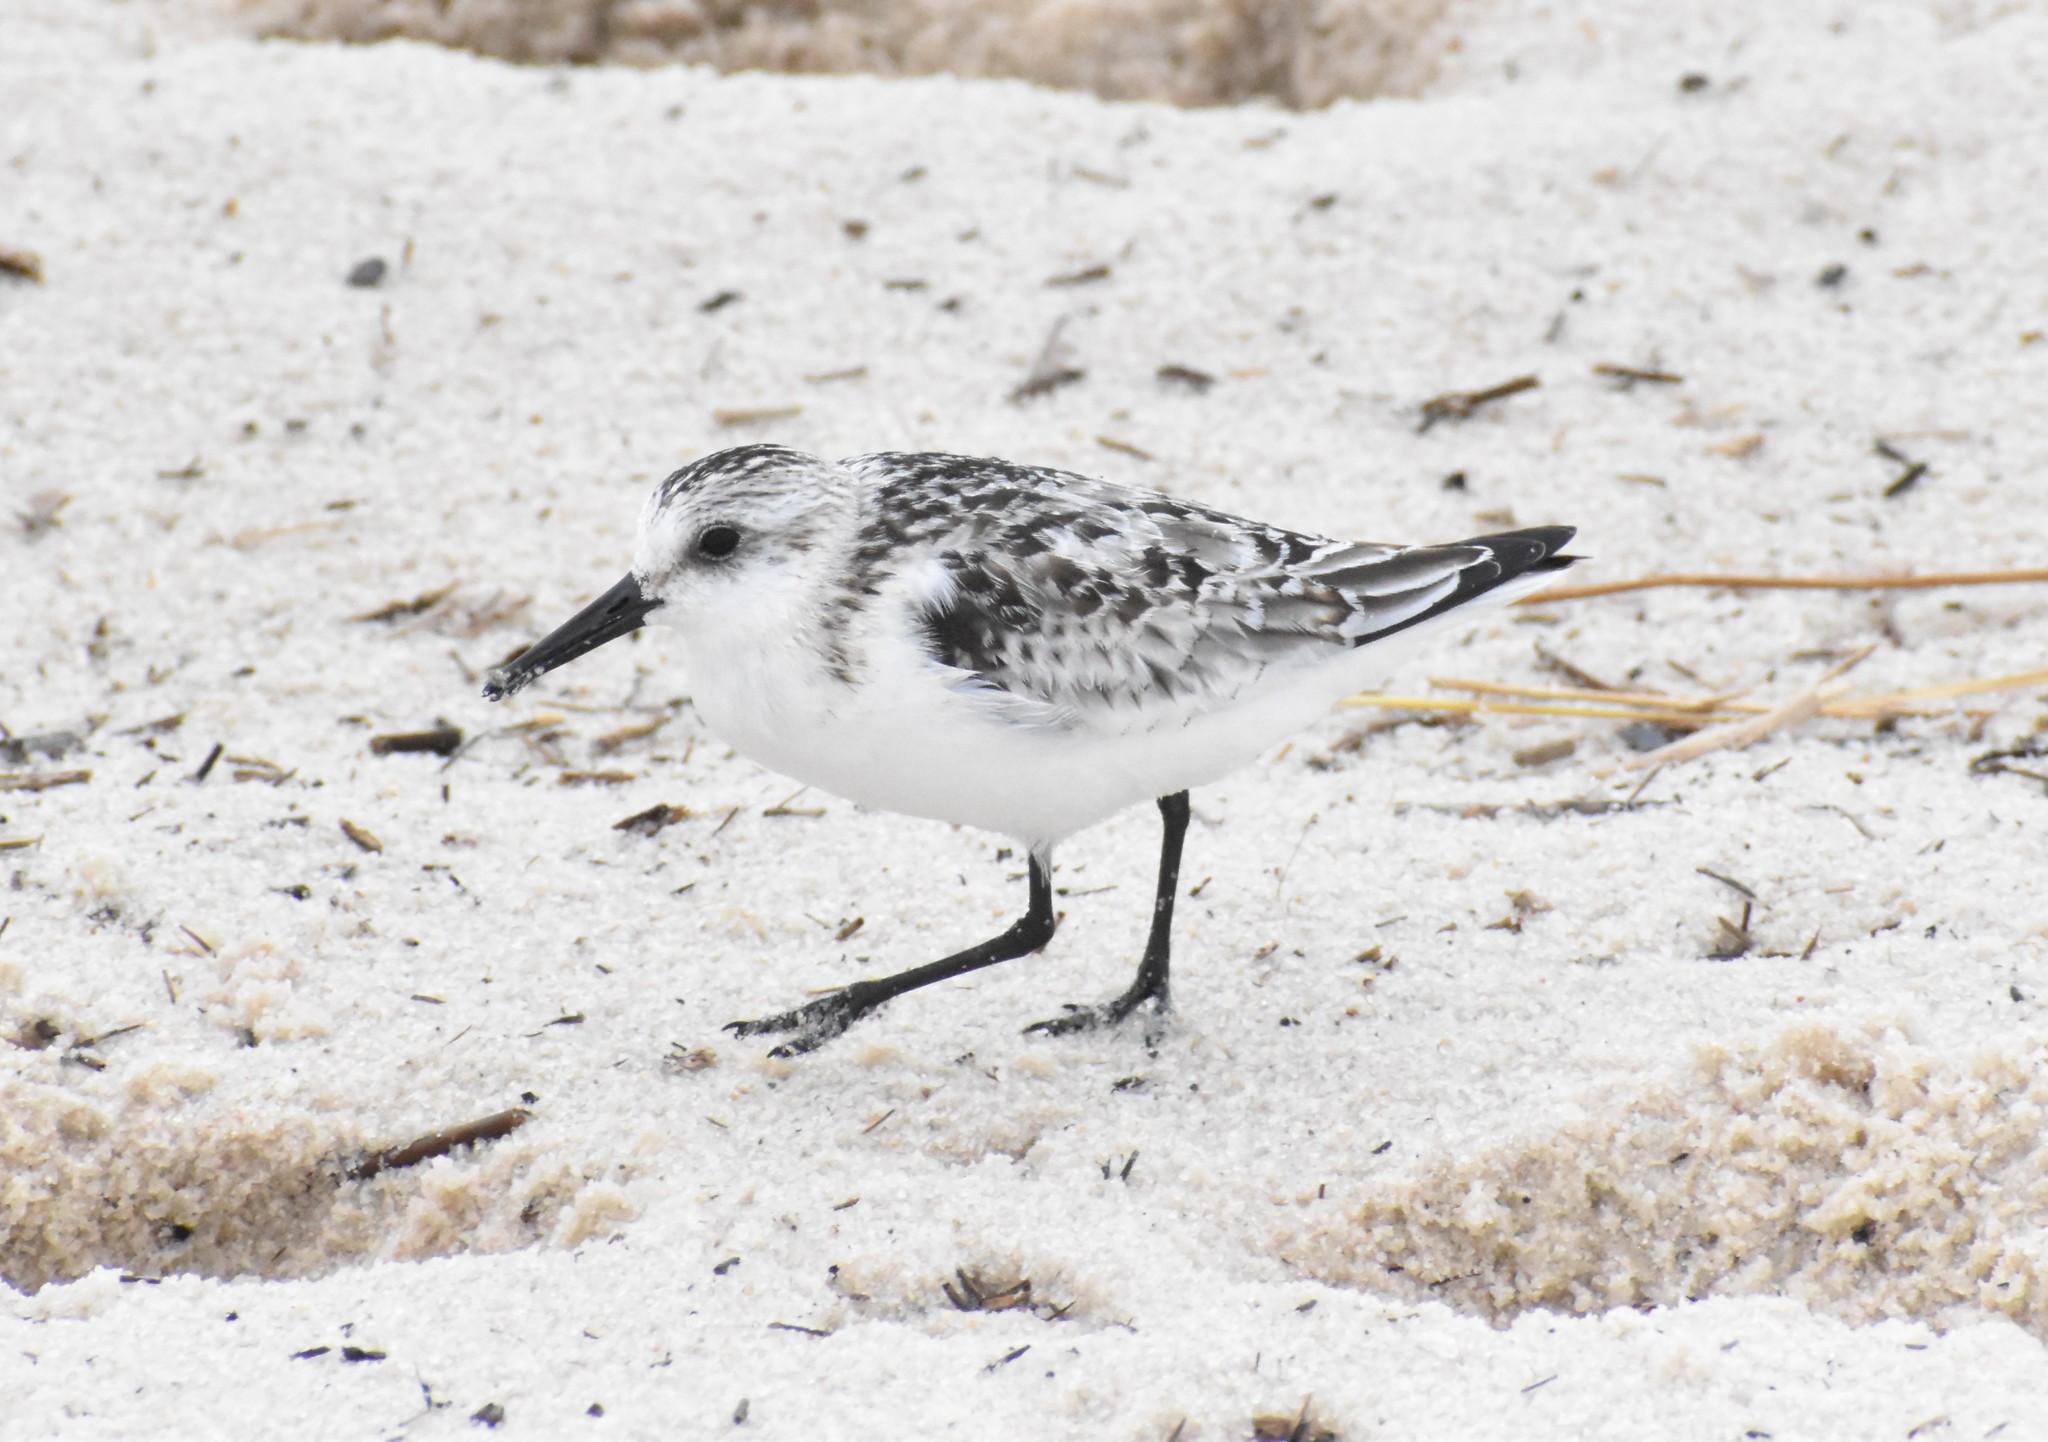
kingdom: Animalia
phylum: Chordata
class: Aves
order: Charadriiformes
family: Scolopacidae
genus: Calidris
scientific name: Calidris alba
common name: Sanderling
